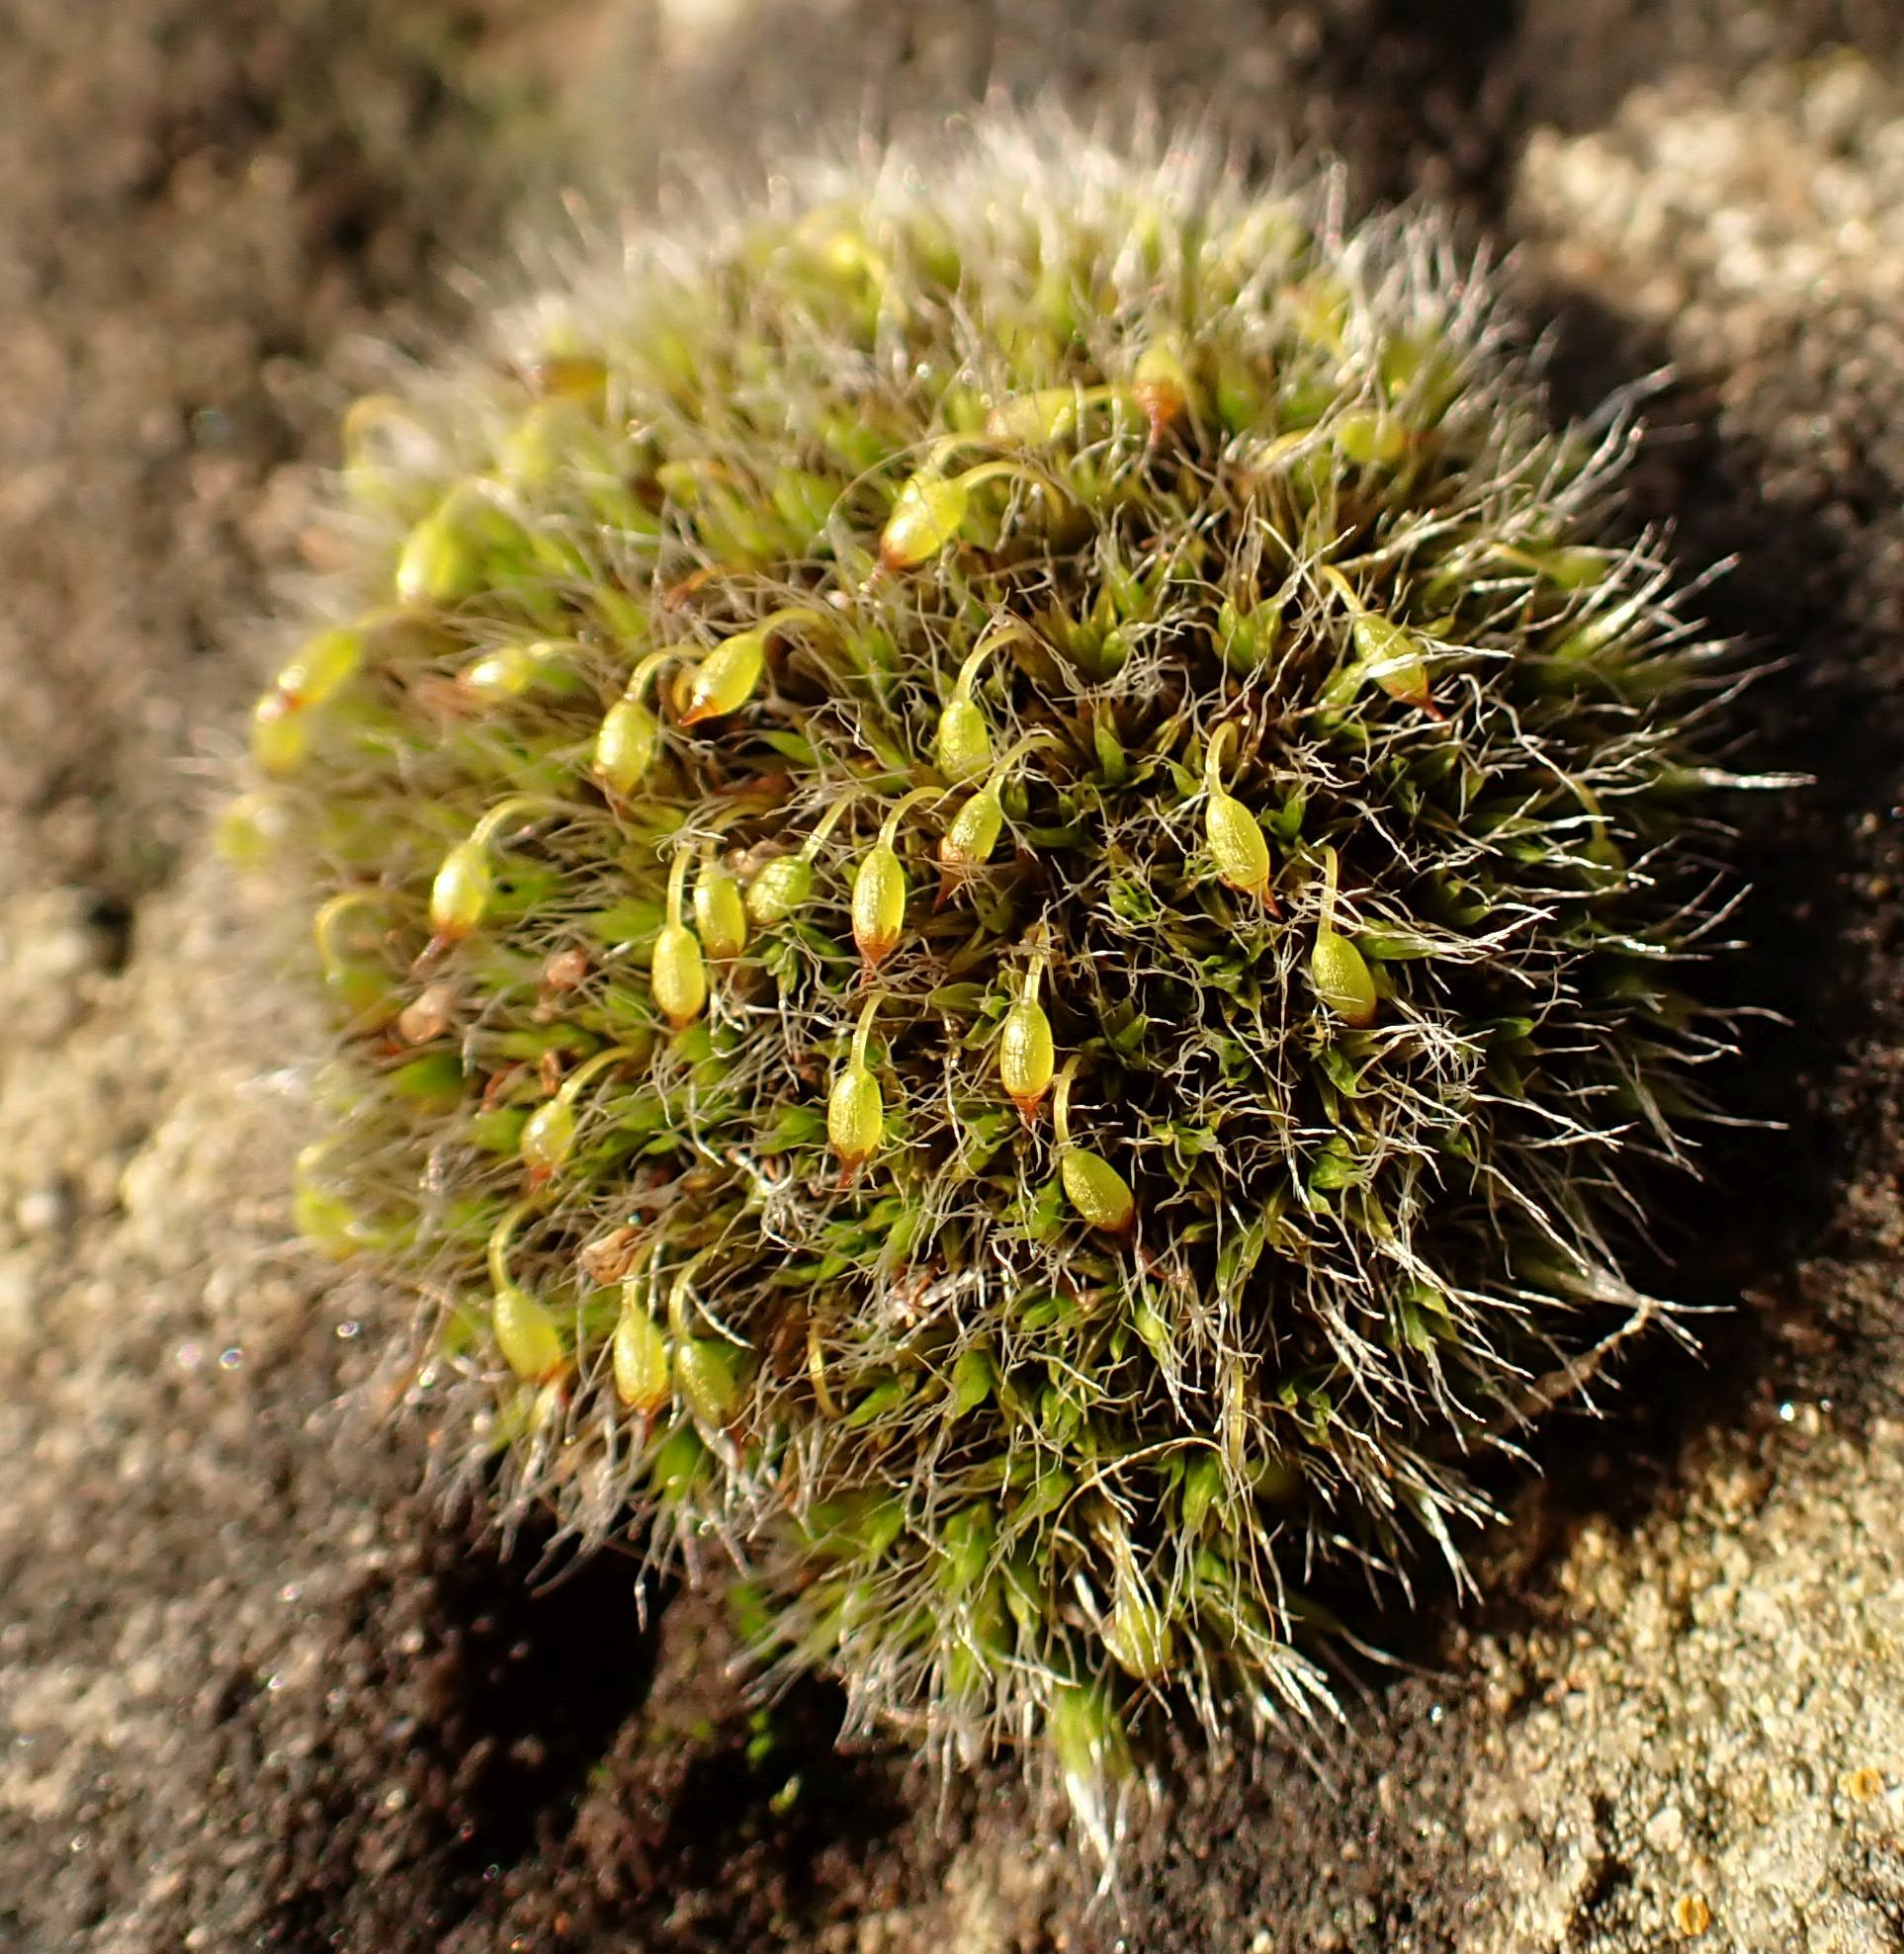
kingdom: Plantae
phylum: Bryophyta
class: Bryopsida
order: Grimmiales
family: Grimmiaceae
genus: Grimmia
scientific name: Grimmia pulvinata
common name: Grey-cushioned grimmia
